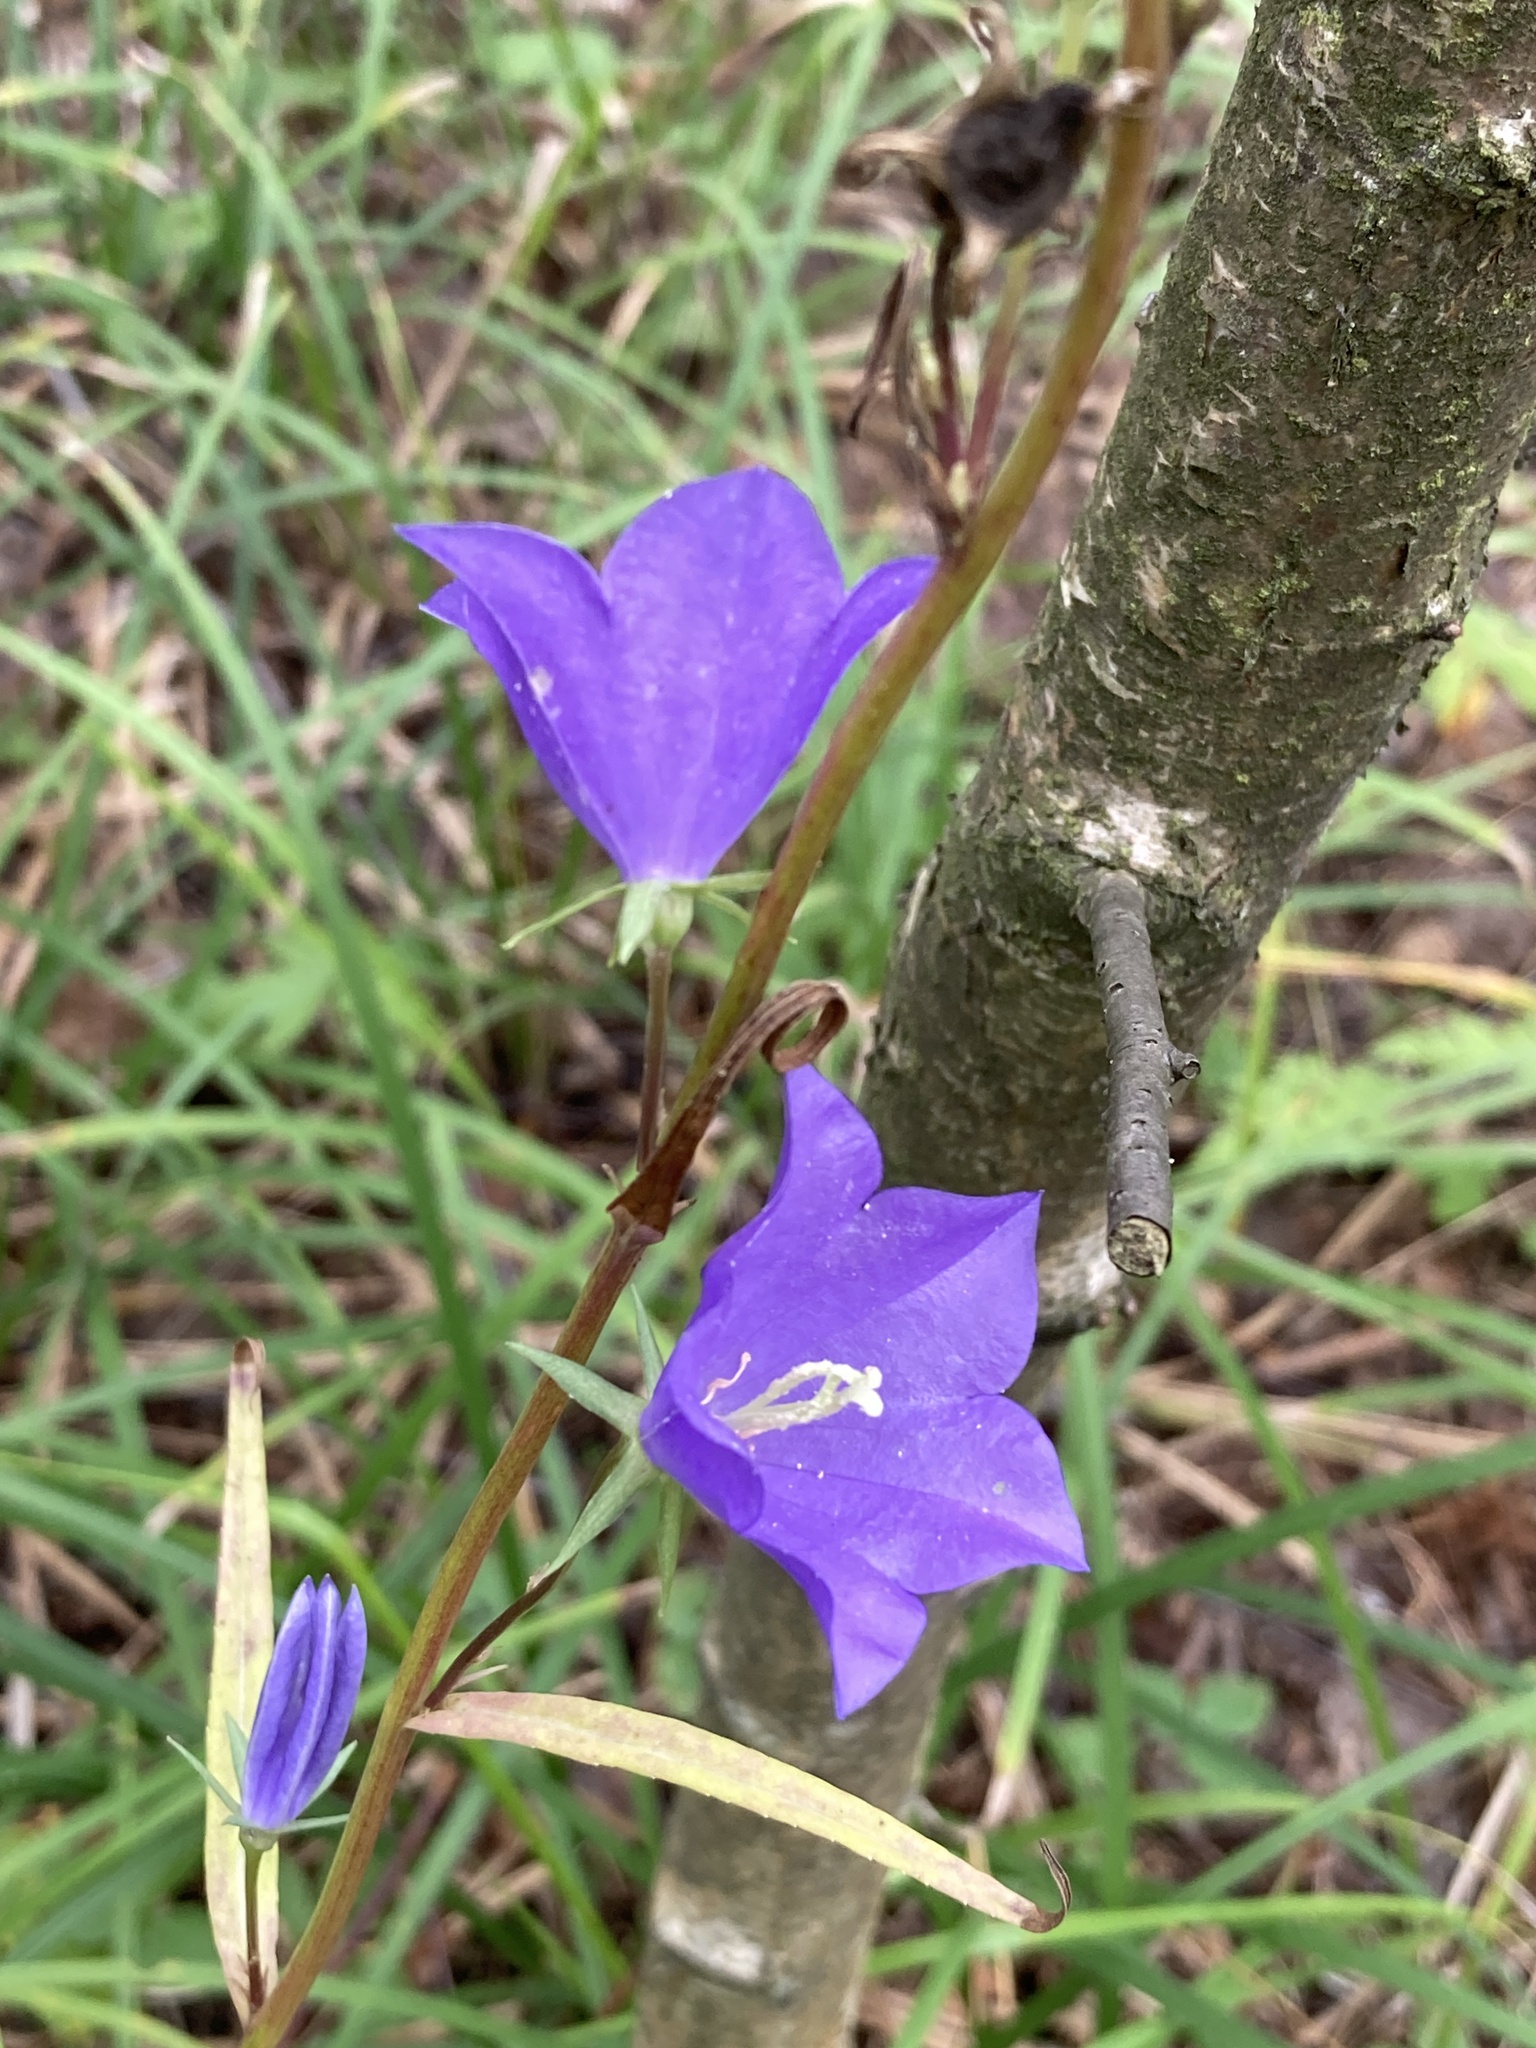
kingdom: Plantae
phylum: Tracheophyta
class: Magnoliopsida
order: Asterales
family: Campanulaceae
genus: Campanula
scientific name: Campanula persicifolia
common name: Peach-leaved bellflower
